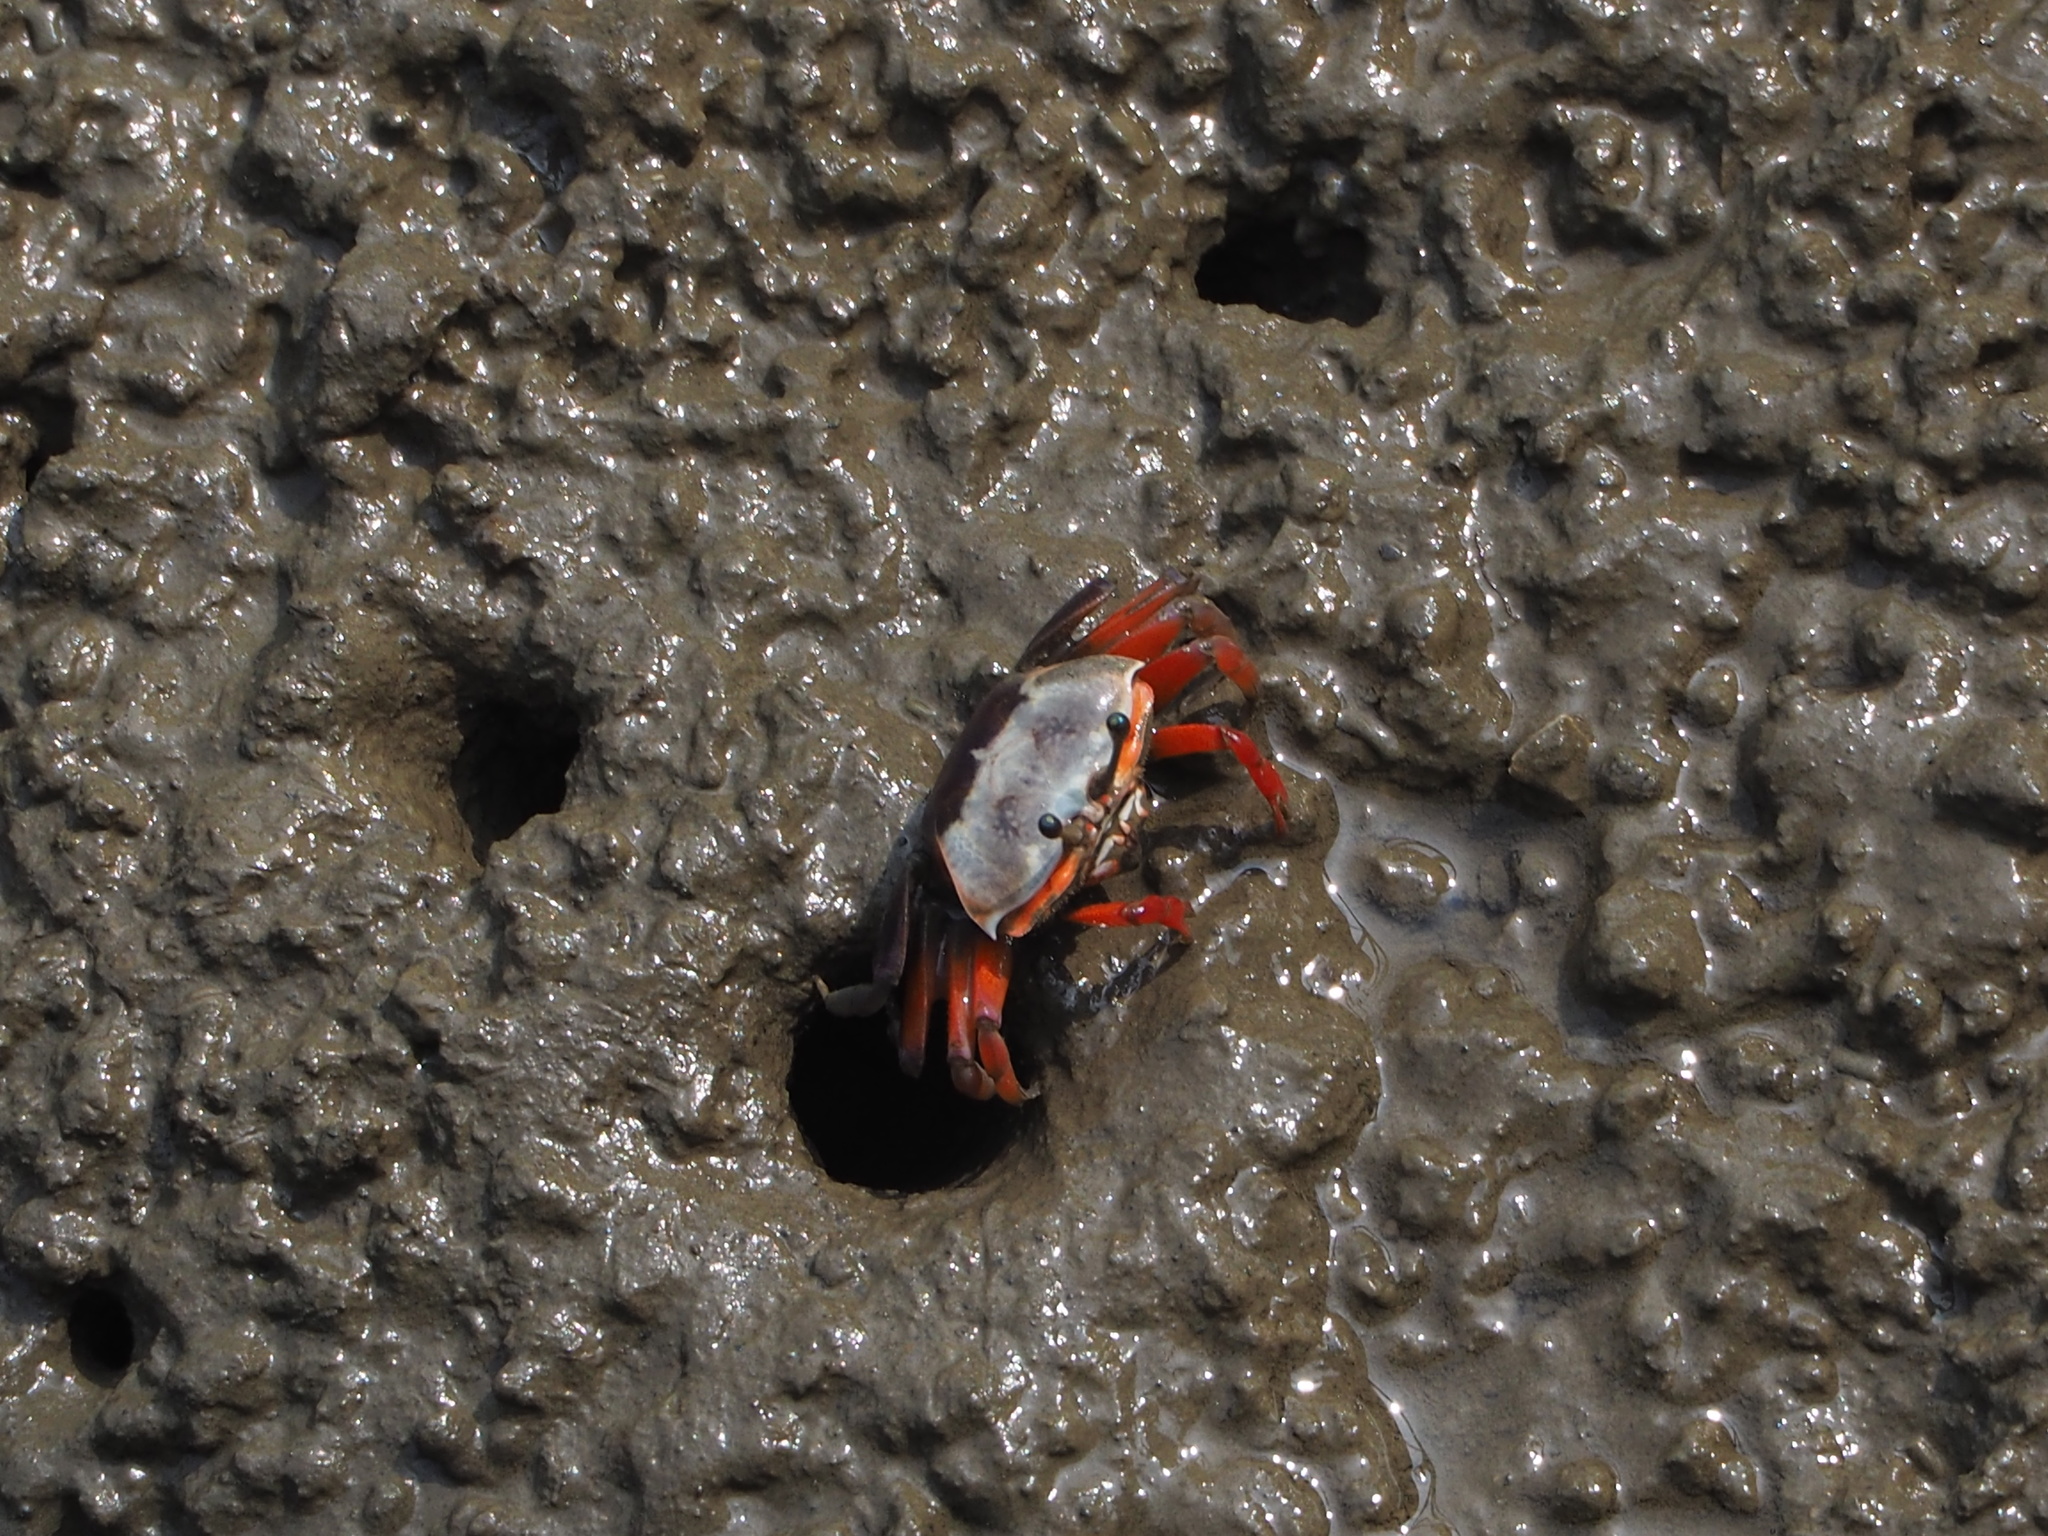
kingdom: Animalia
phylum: Arthropoda
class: Malacostraca
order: Decapoda
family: Ocypodidae
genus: Tubuca
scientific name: Tubuca arcuata
